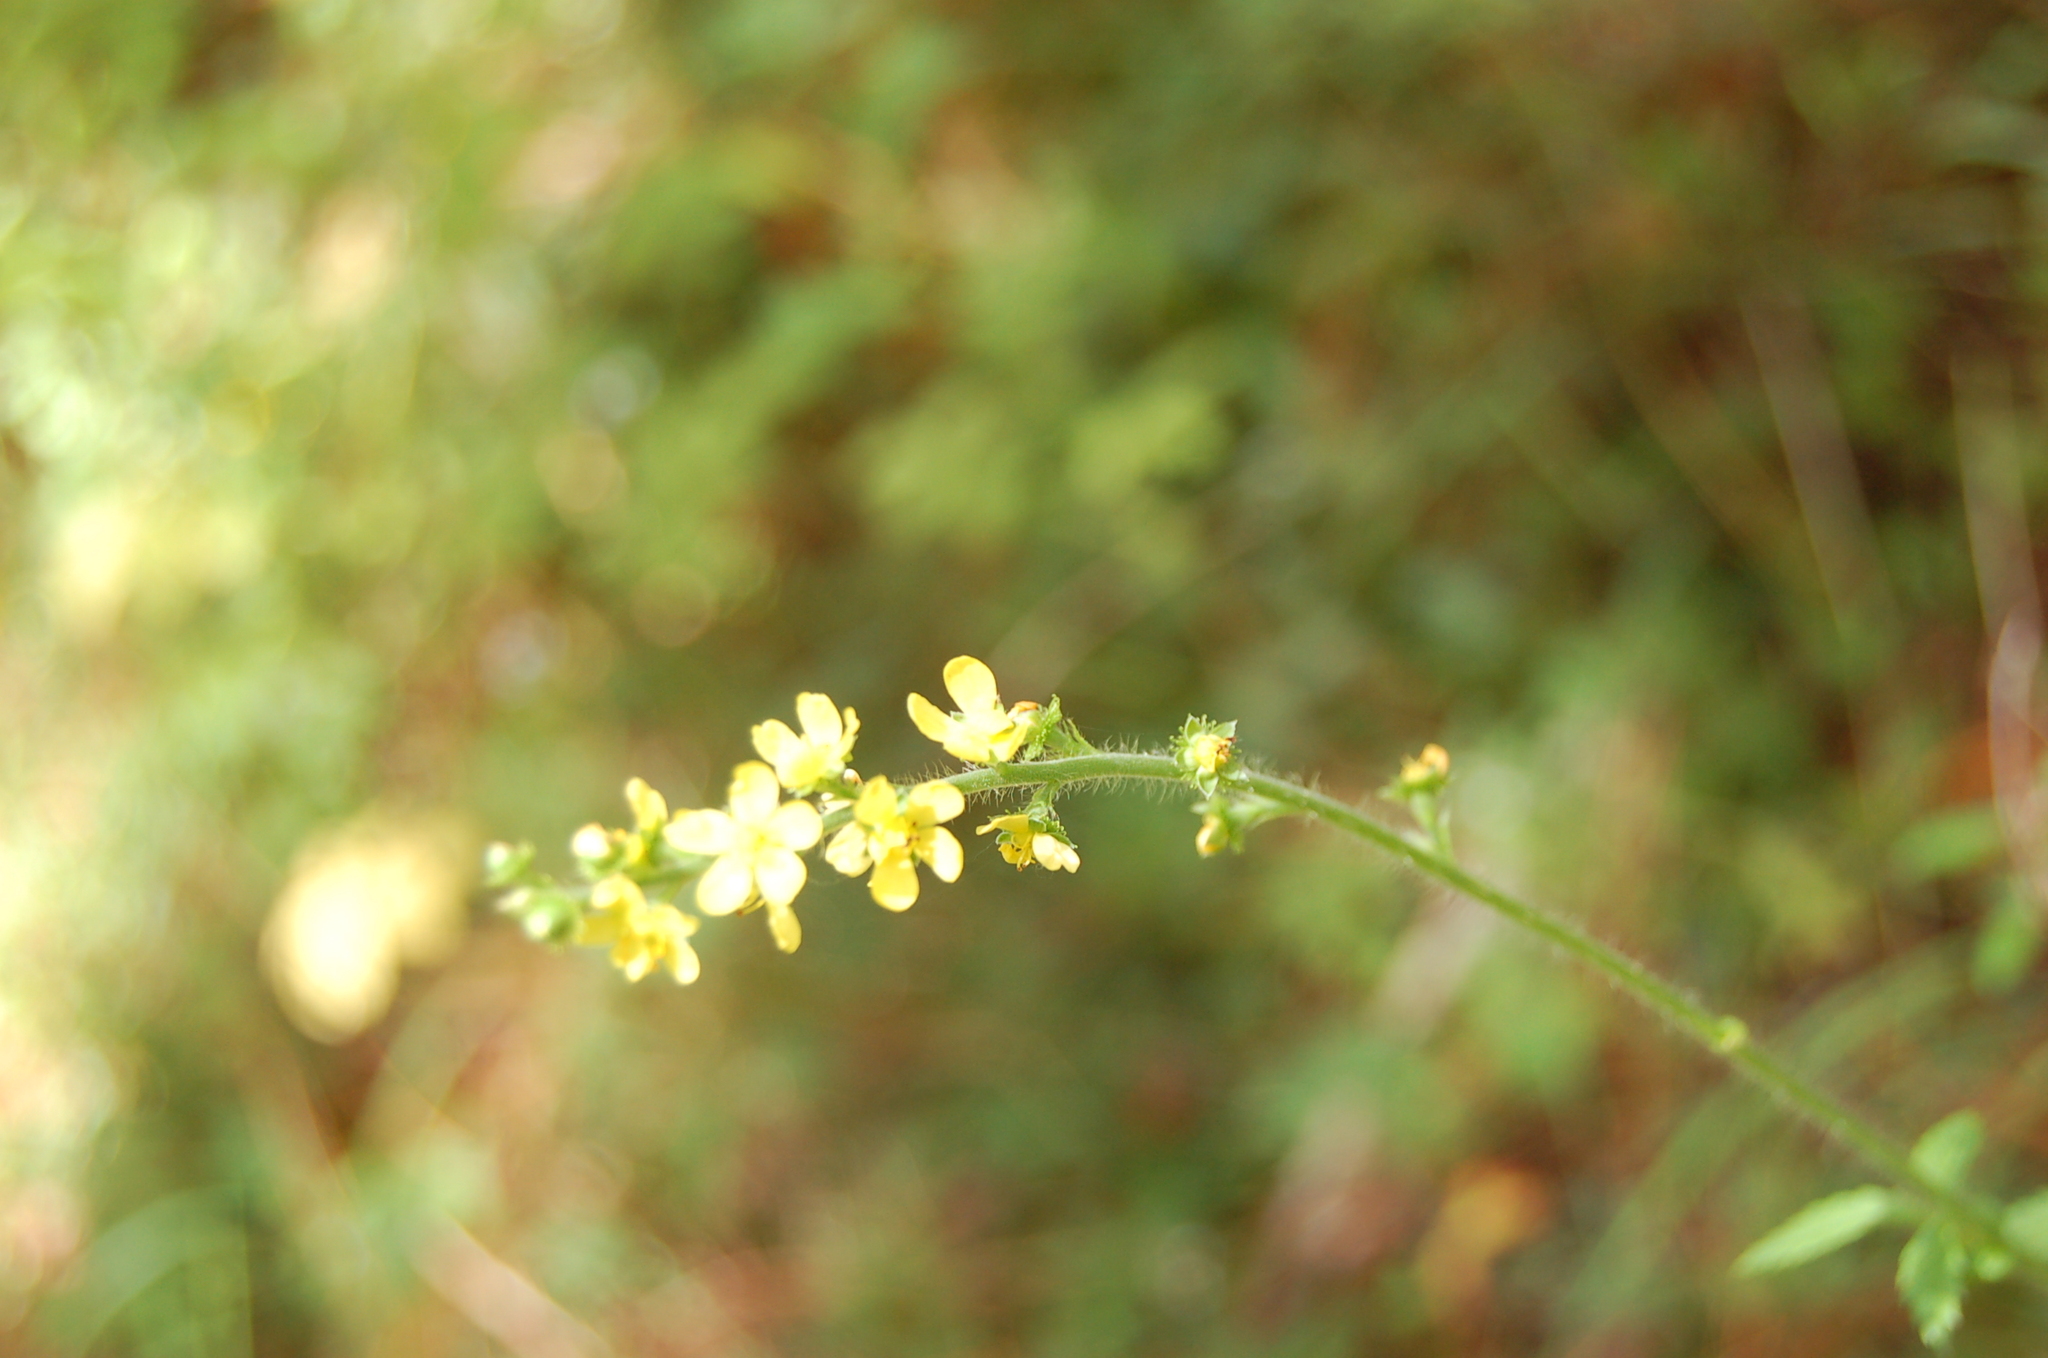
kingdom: Plantae
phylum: Tracheophyta
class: Magnoliopsida
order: Rosales
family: Rosaceae
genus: Agrimonia
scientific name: Agrimonia gryposepala
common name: Common agrimony
